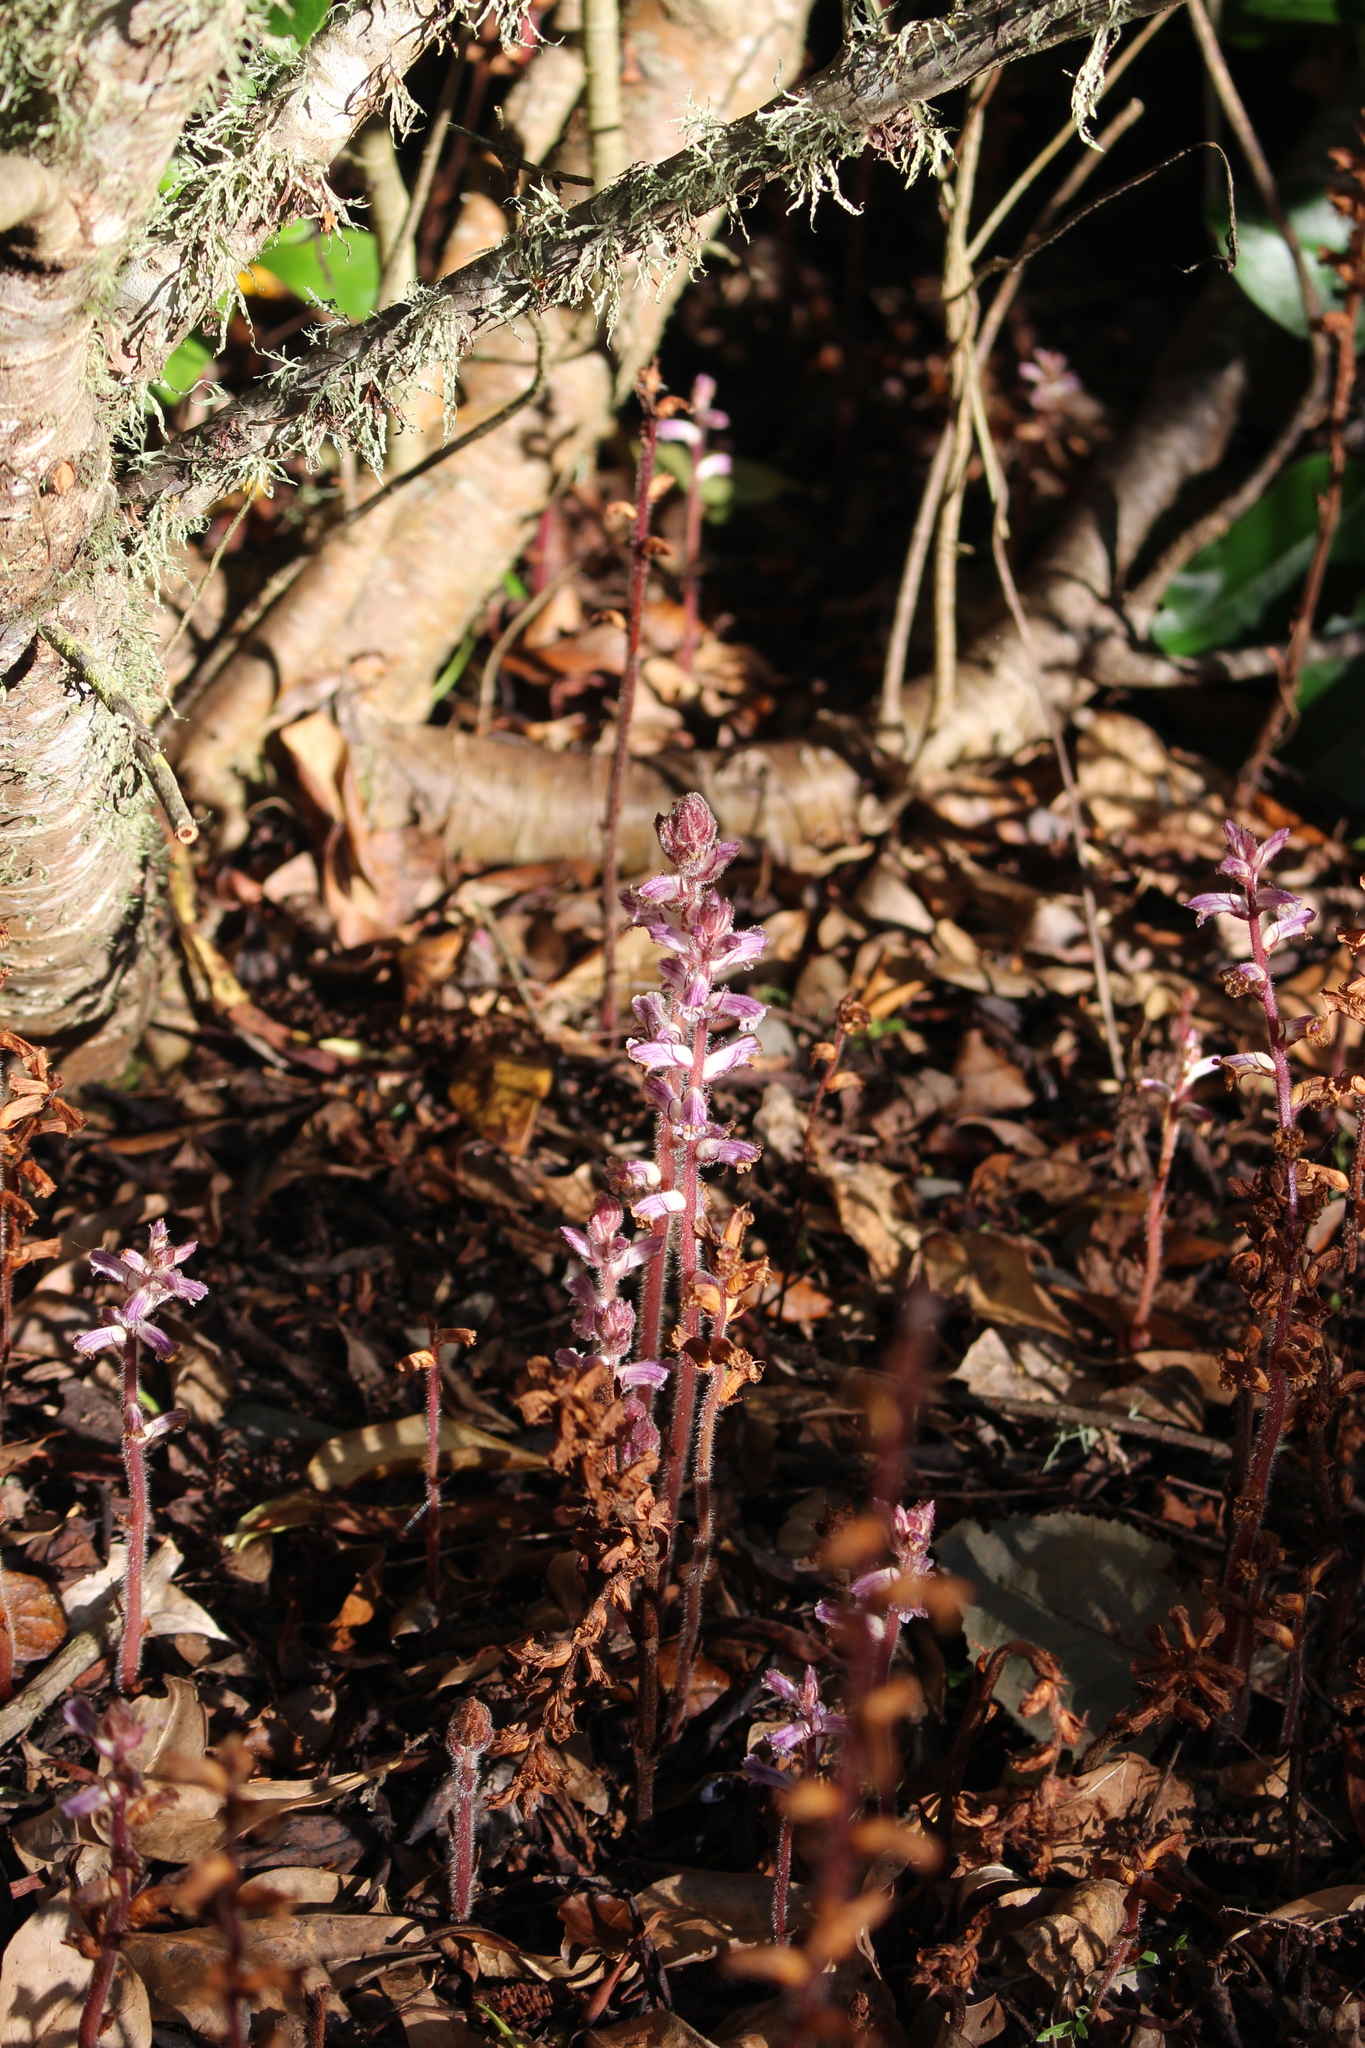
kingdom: Plantae
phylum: Tracheophyta
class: Magnoliopsida
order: Lamiales
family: Orobanchaceae
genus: Orobanche
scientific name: Orobanche minor
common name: Common broomrape
